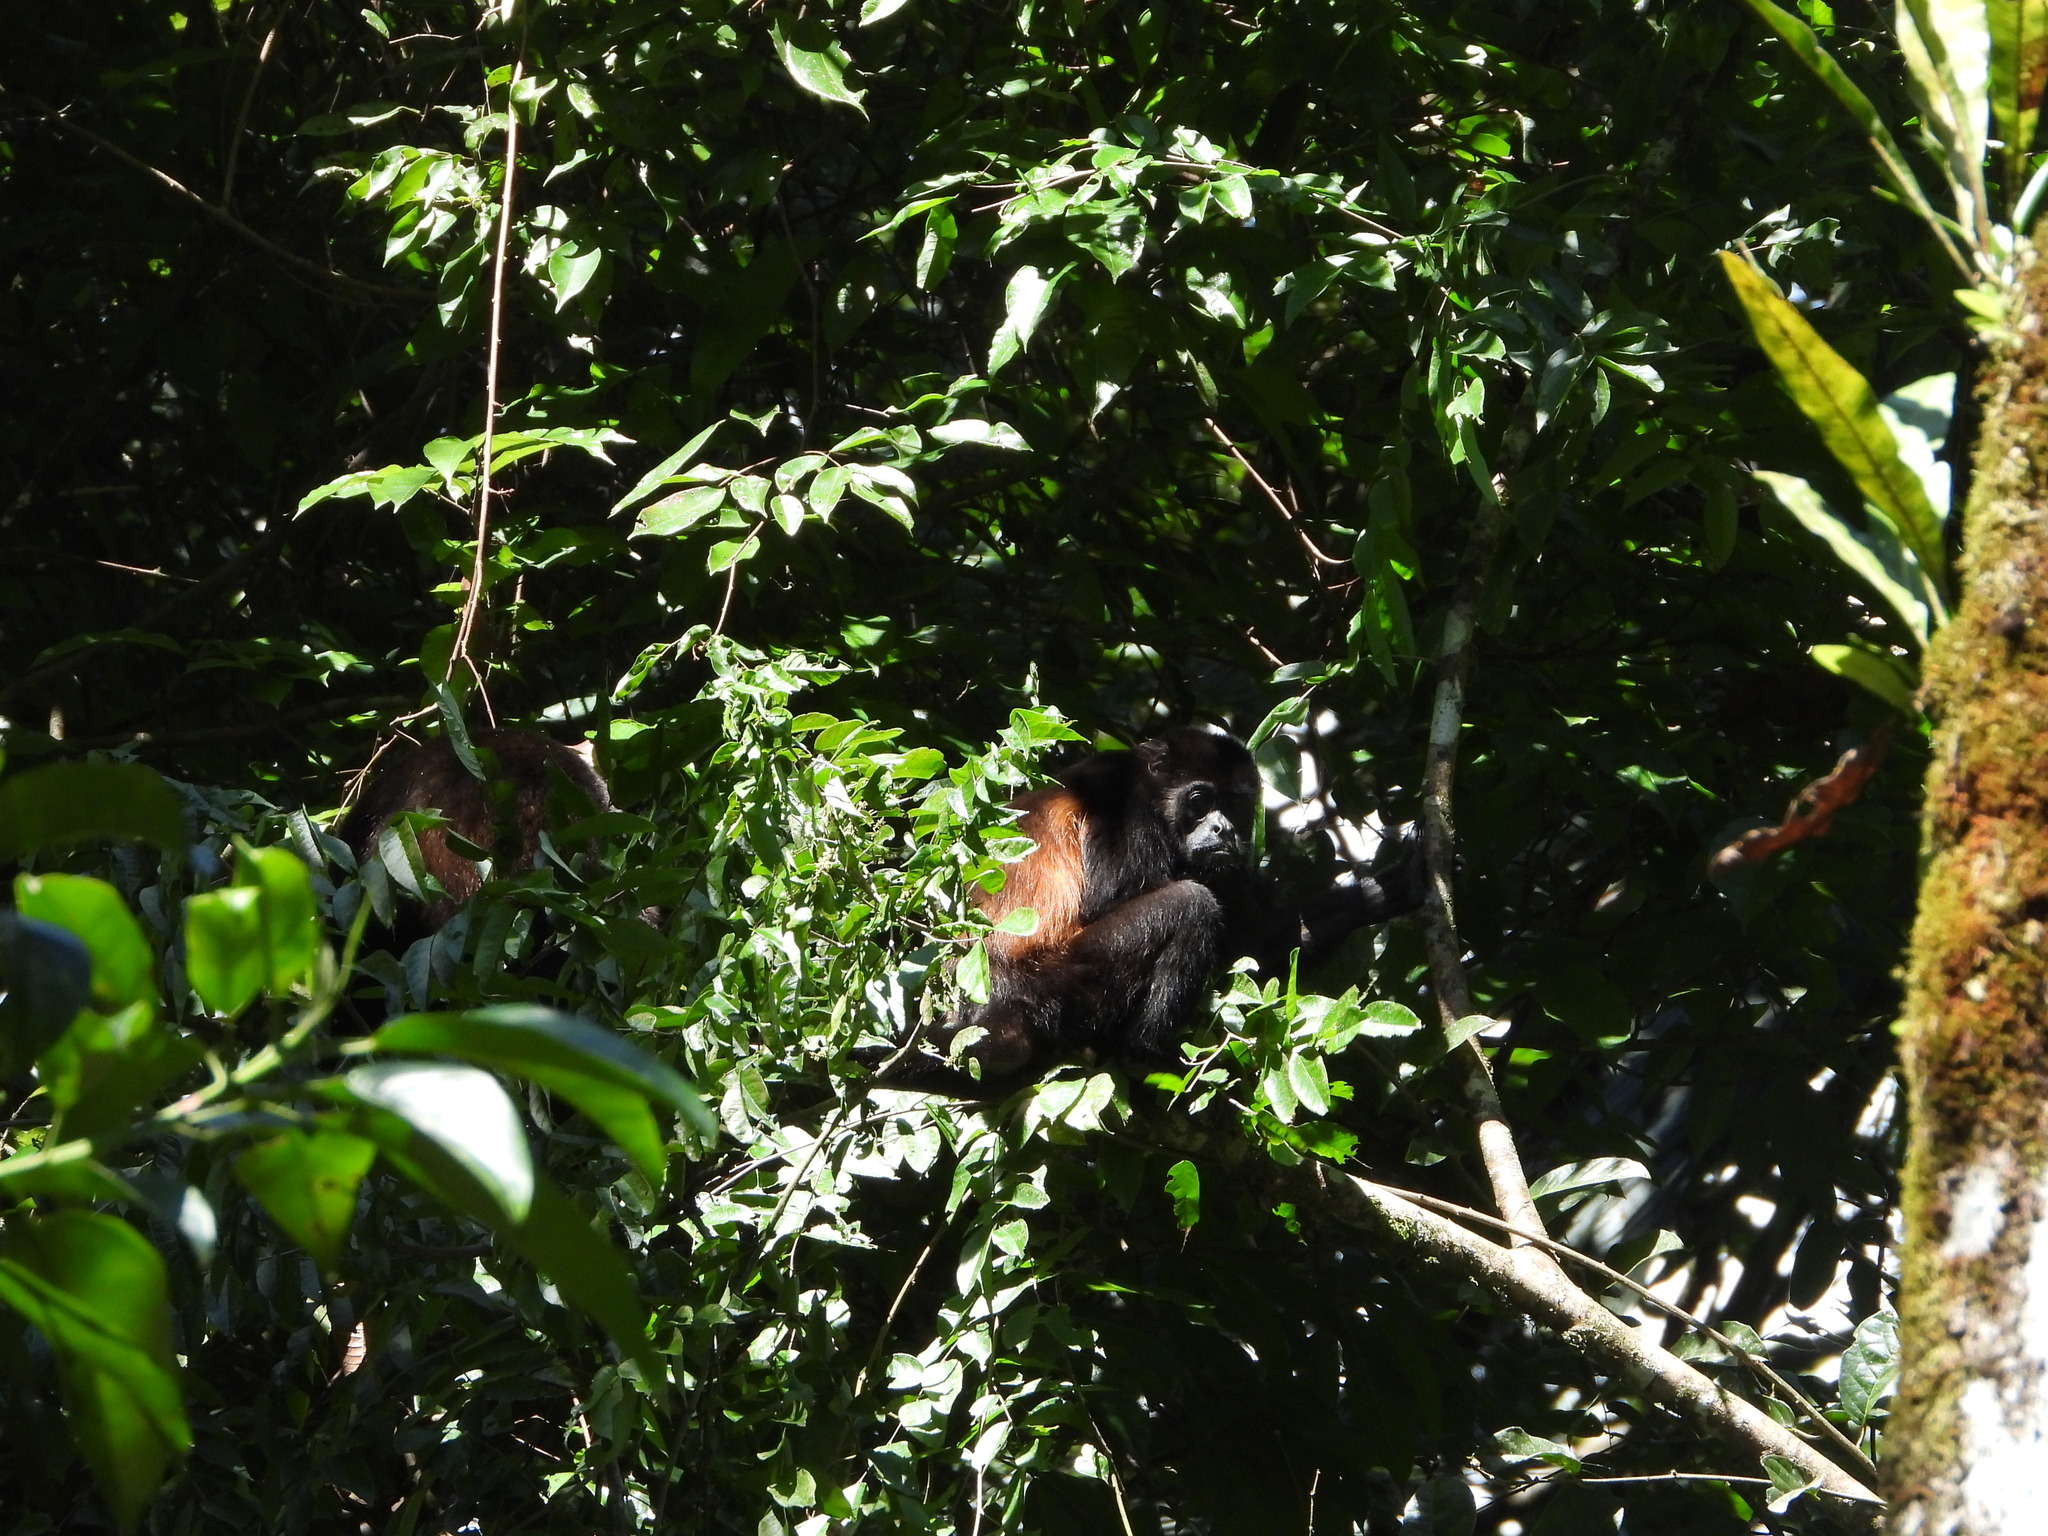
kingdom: Animalia
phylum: Chordata
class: Mammalia
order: Primates
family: Atelidae
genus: Alouatta
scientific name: Alouatta palliata
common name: Mantled howler
